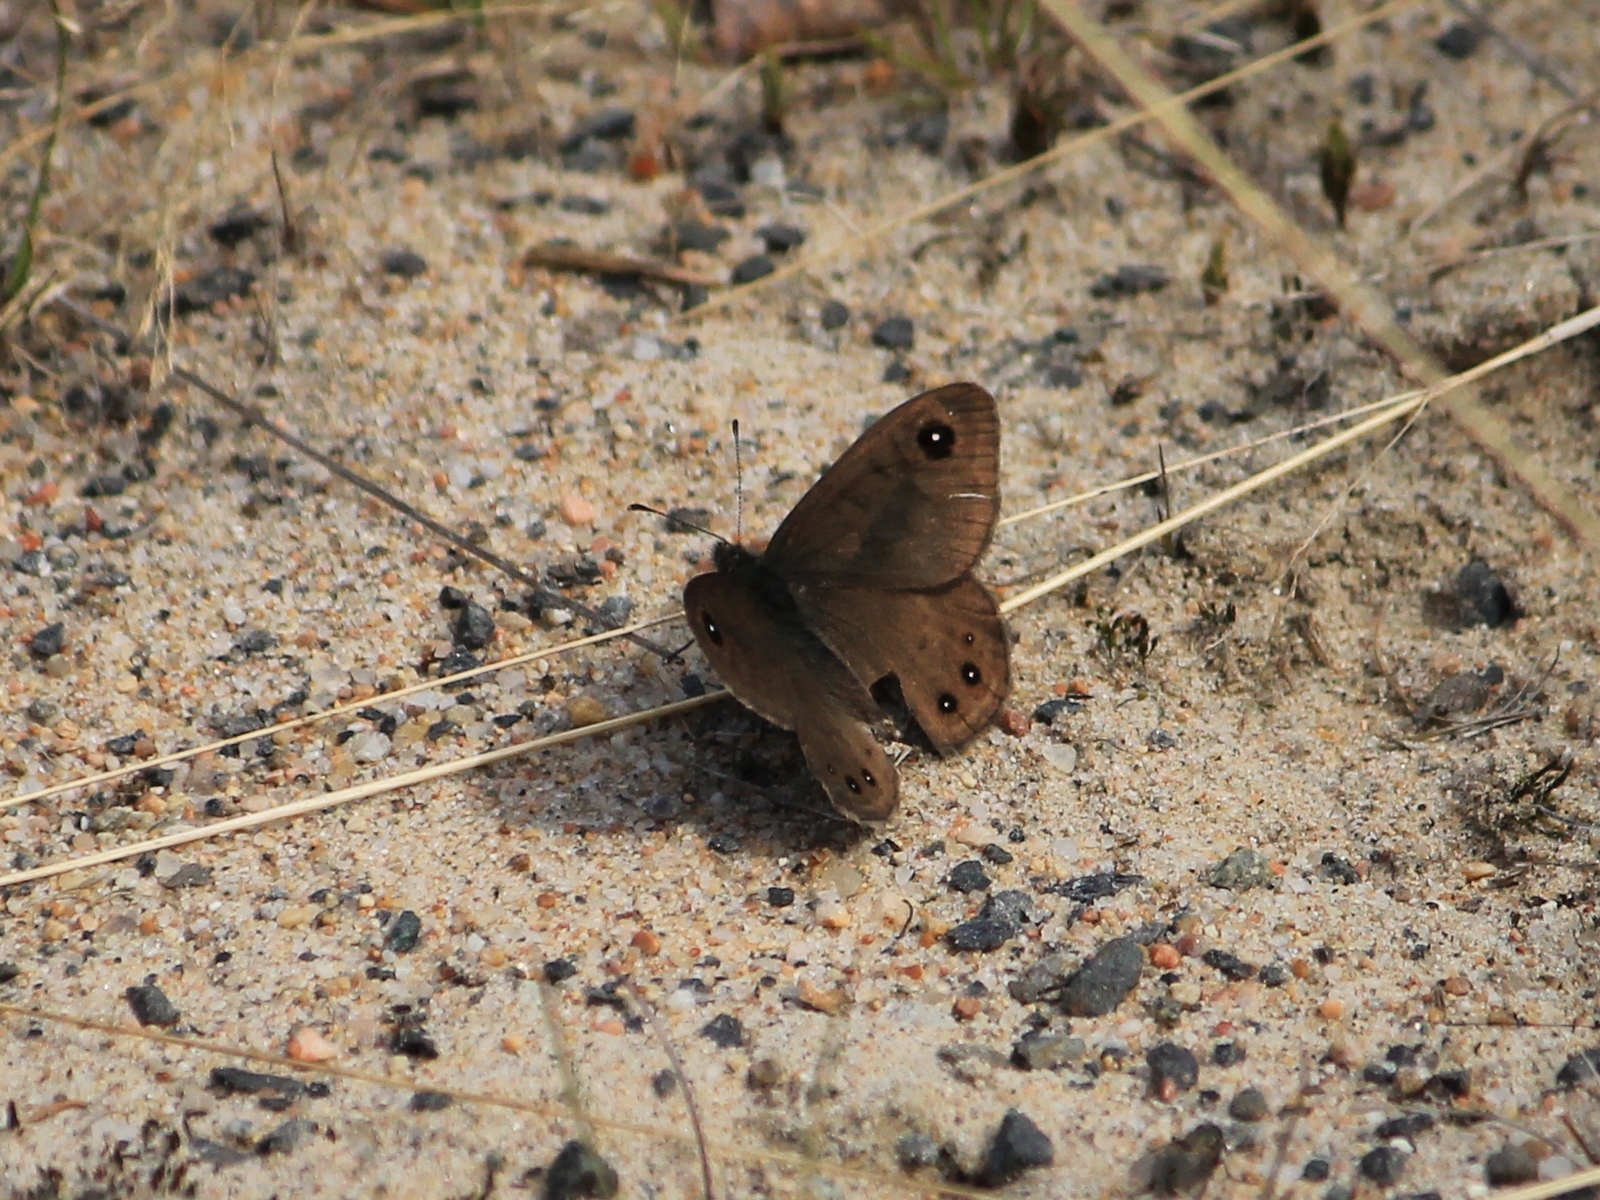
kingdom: Animalia
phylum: Arthropoda
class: Insecta
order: Lepidoptera
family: Nymphalidae
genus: Pararge
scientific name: Pararge petropolitana
